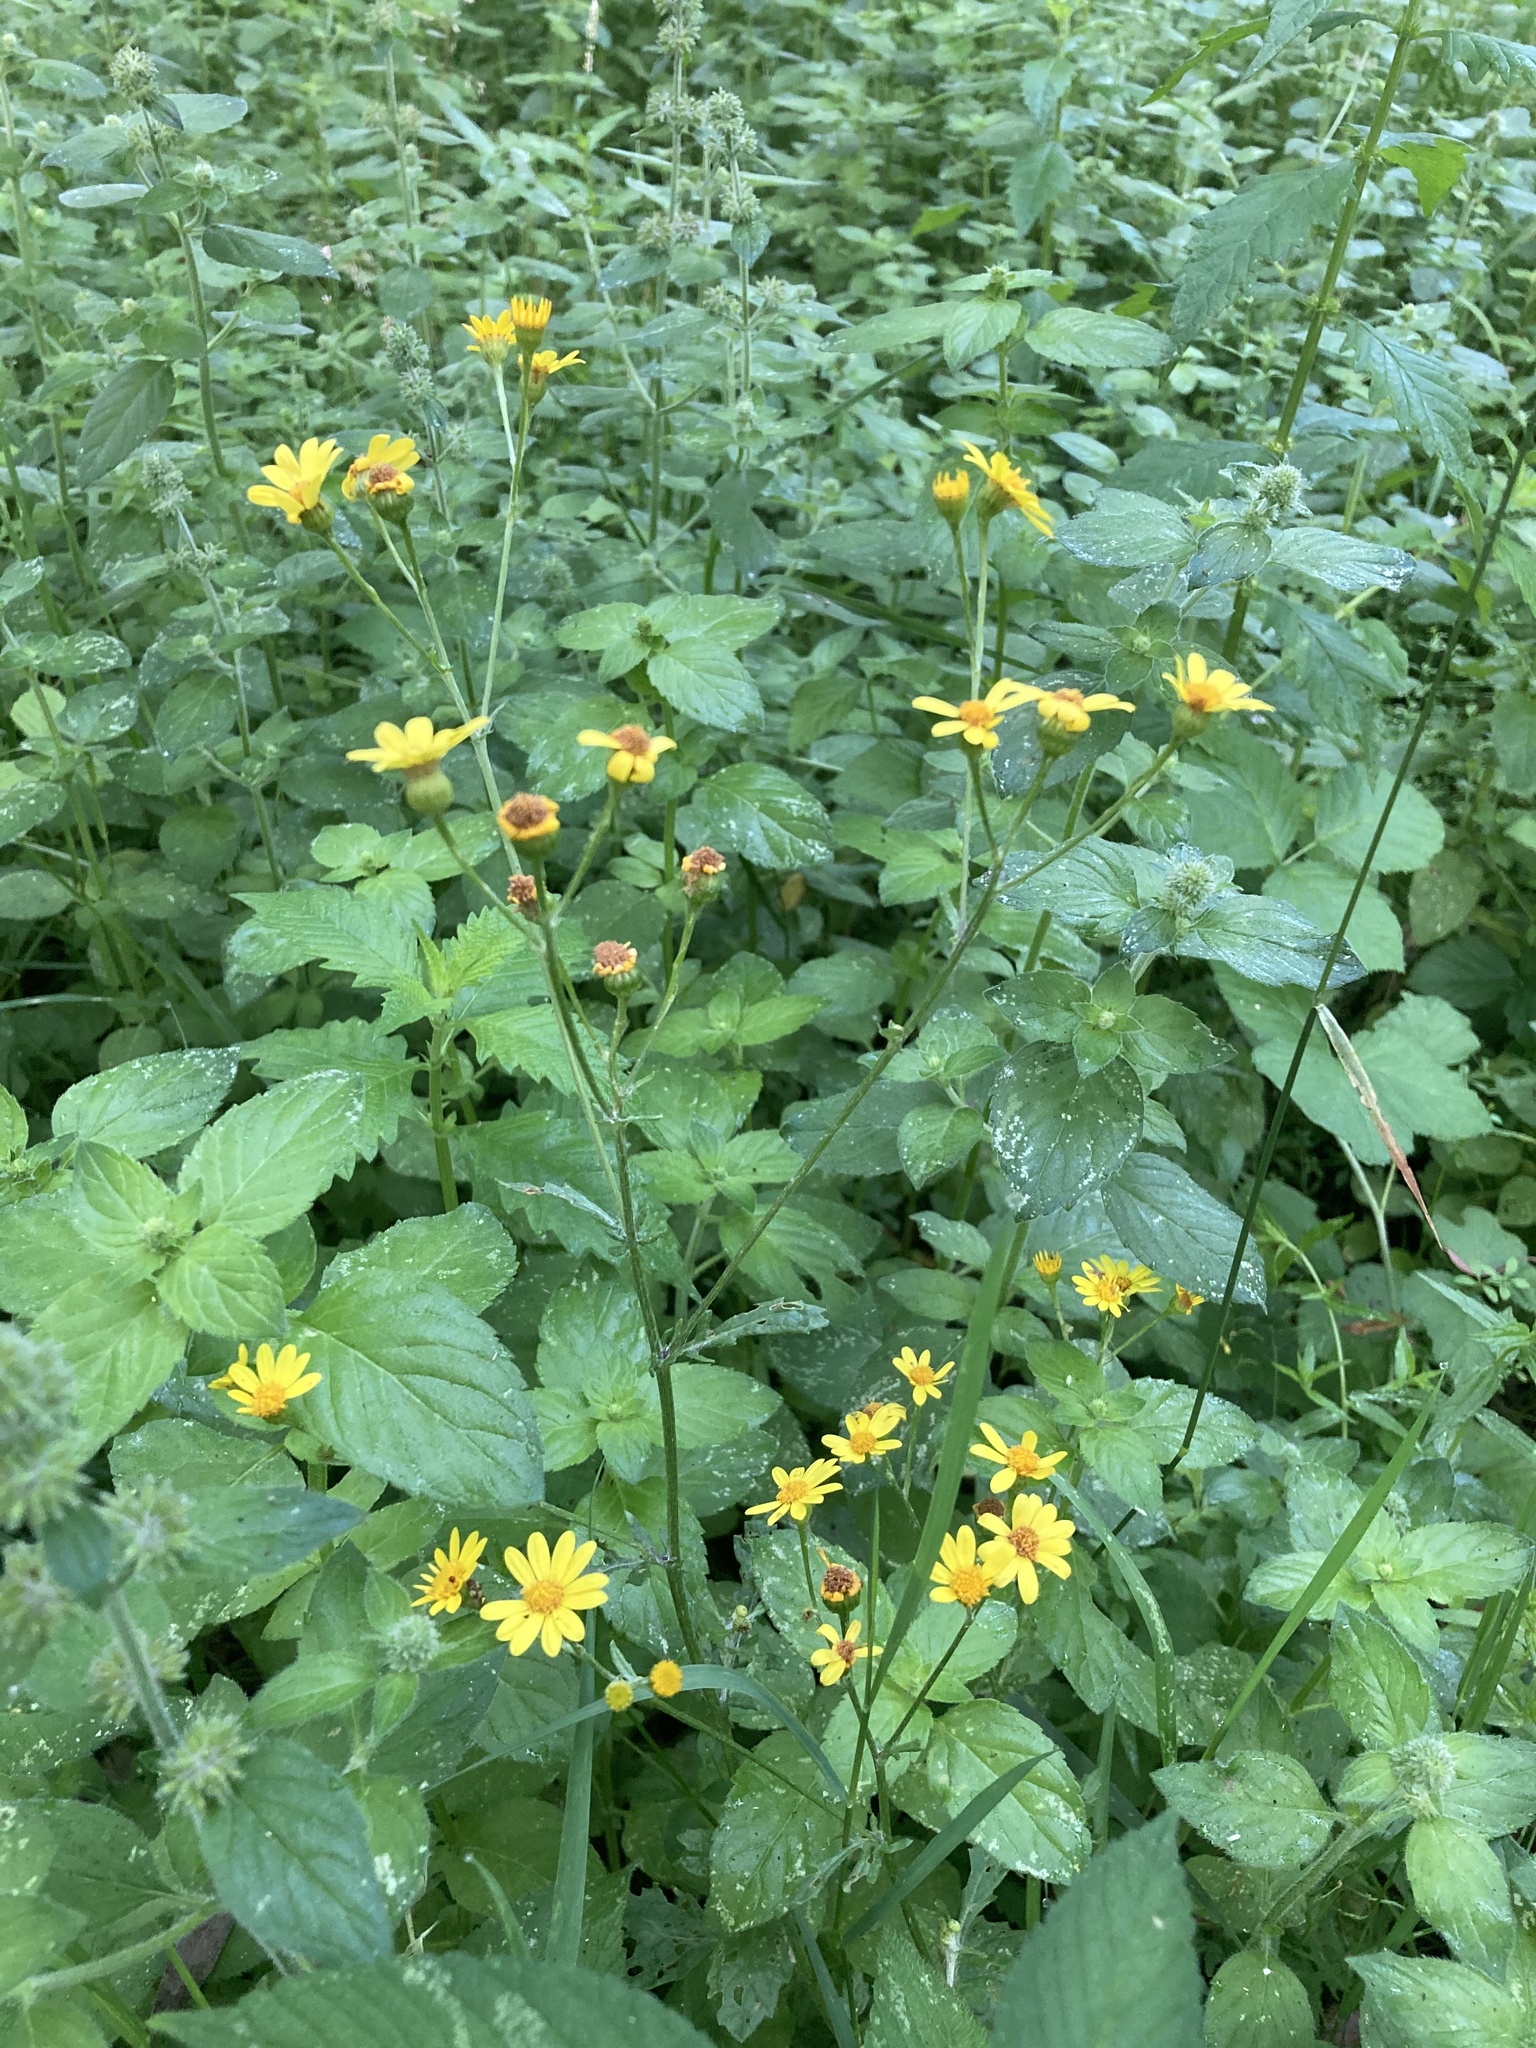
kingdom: Plantae
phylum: Tracheophyta
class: Magnoliopsida
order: Asterales
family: Asteraceae
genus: Jacobaea
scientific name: Jacobaea
